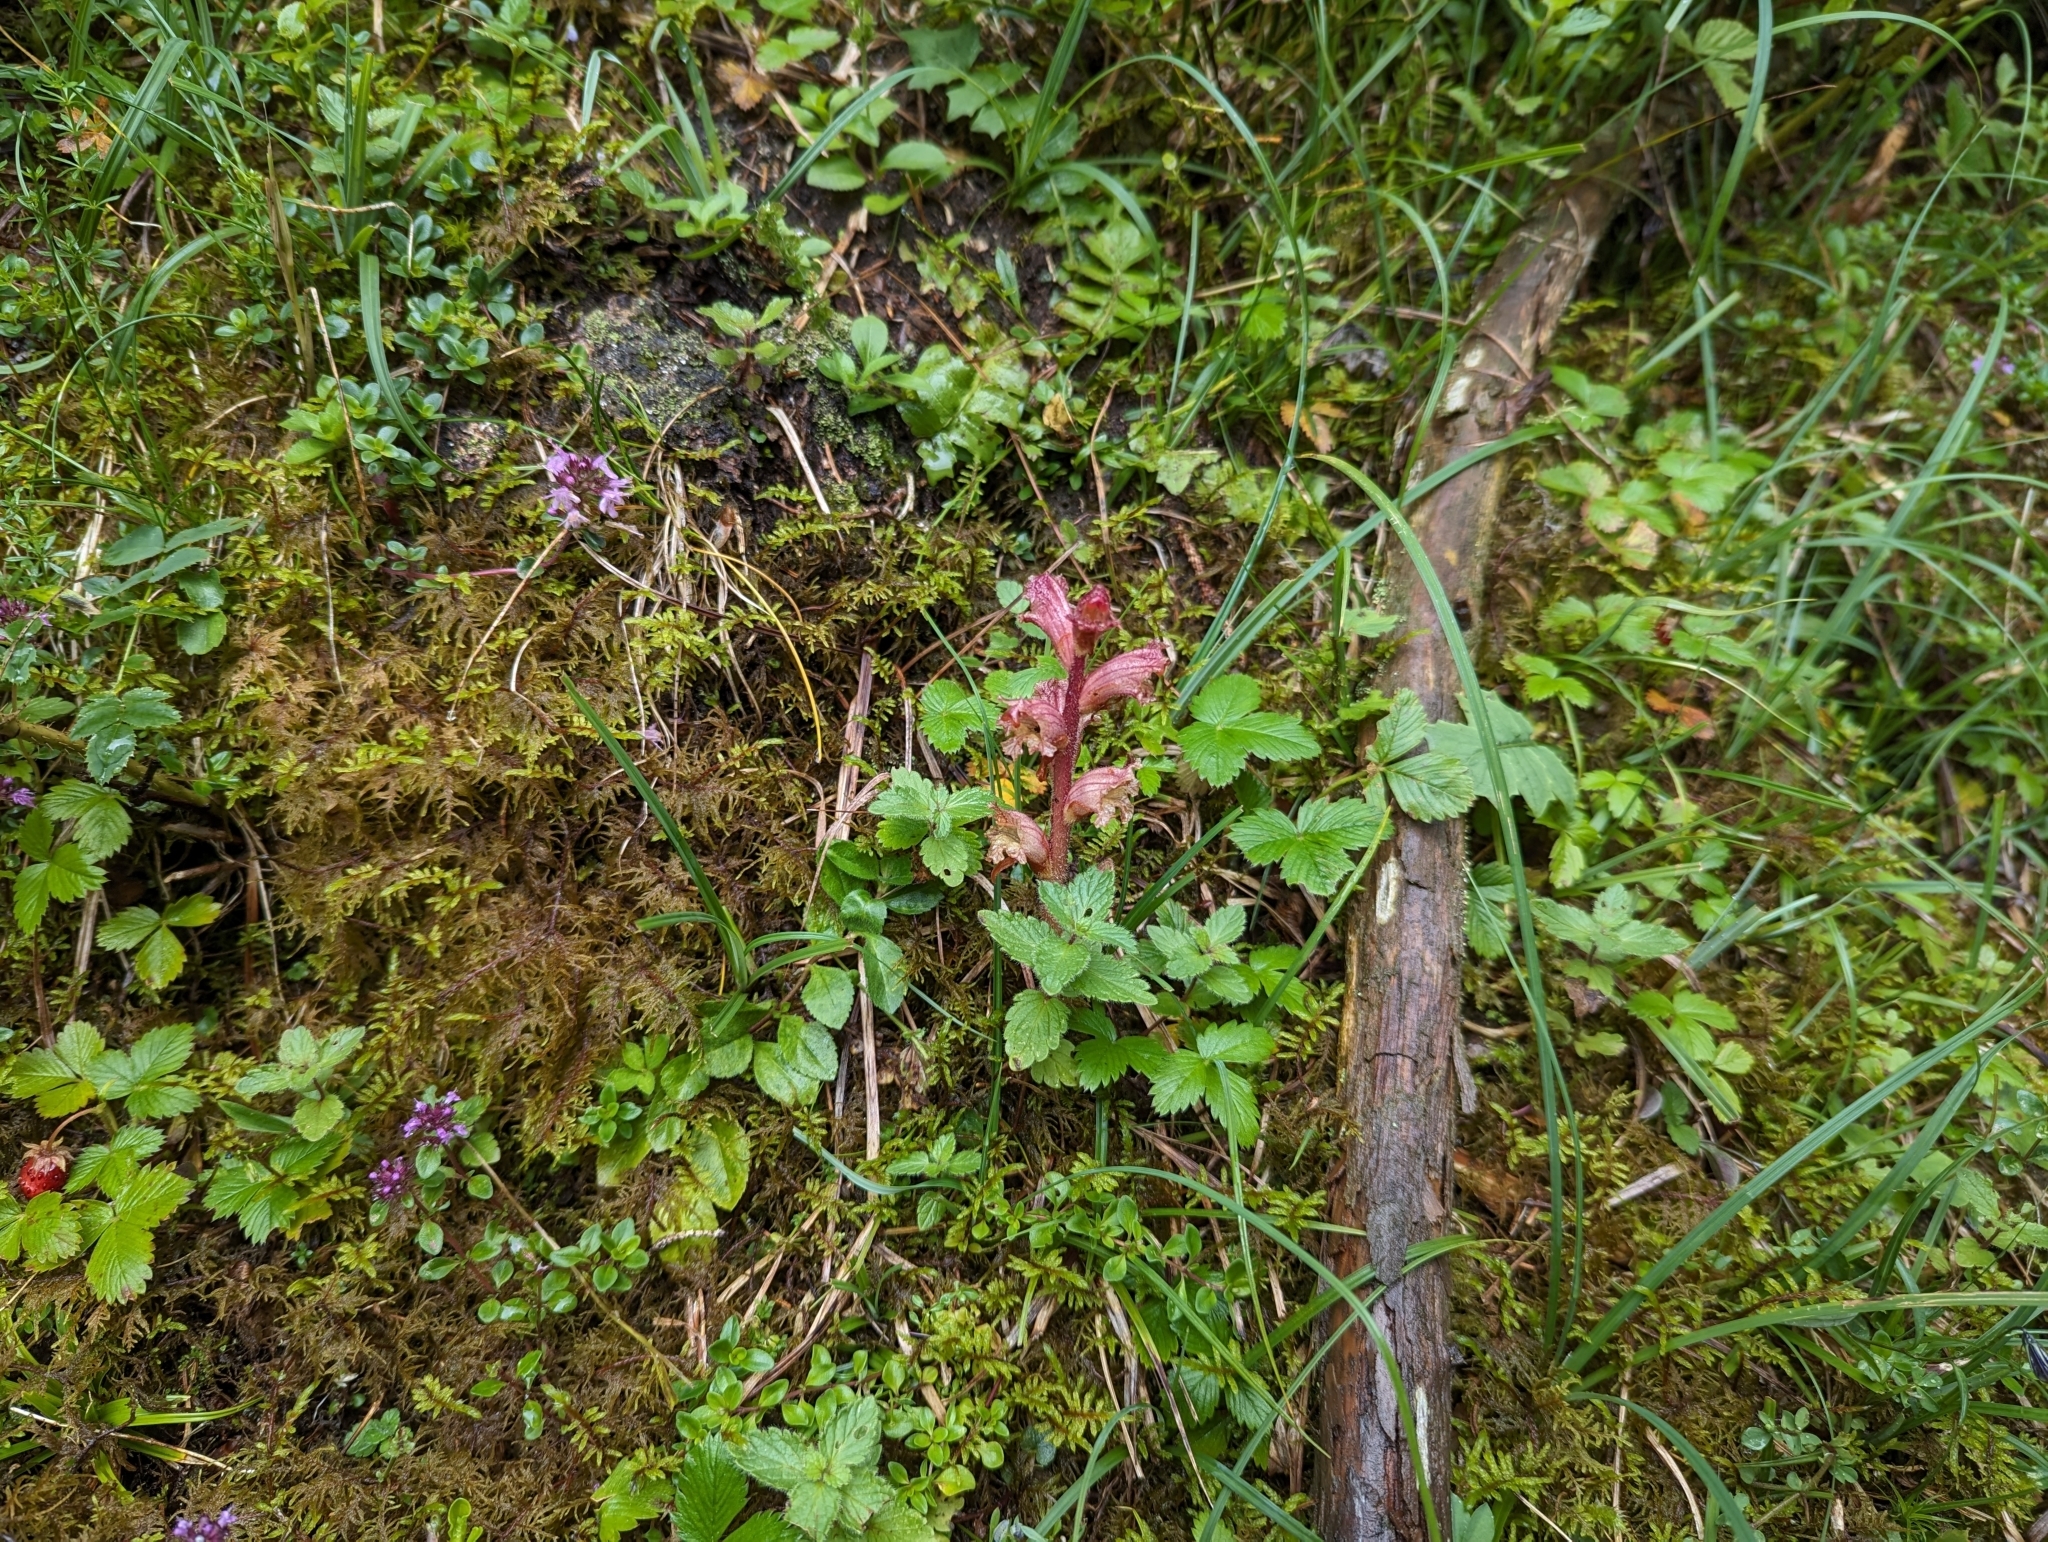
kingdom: Plantae
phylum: Tracheophyta
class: Magnoliopsida
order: Lamiales
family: Orobanchaceae
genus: Orobanche
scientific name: Orobanche alba
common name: Thyme broomrape
